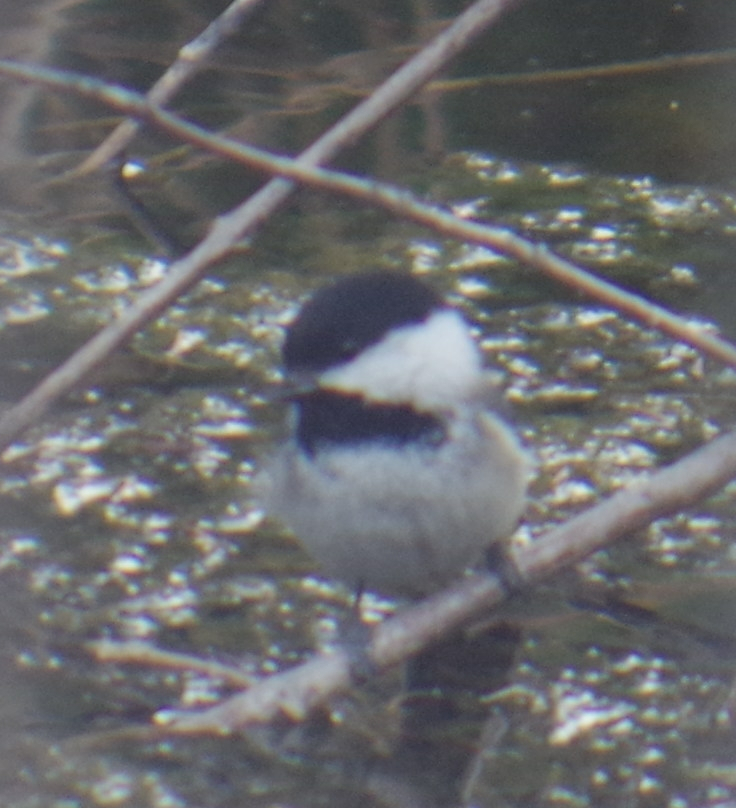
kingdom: Animalia
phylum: Chordata
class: Aves
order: Passeriformes
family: Paridae
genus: Poecile
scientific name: Poecile atricapillus
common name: Black-capped chickadee
